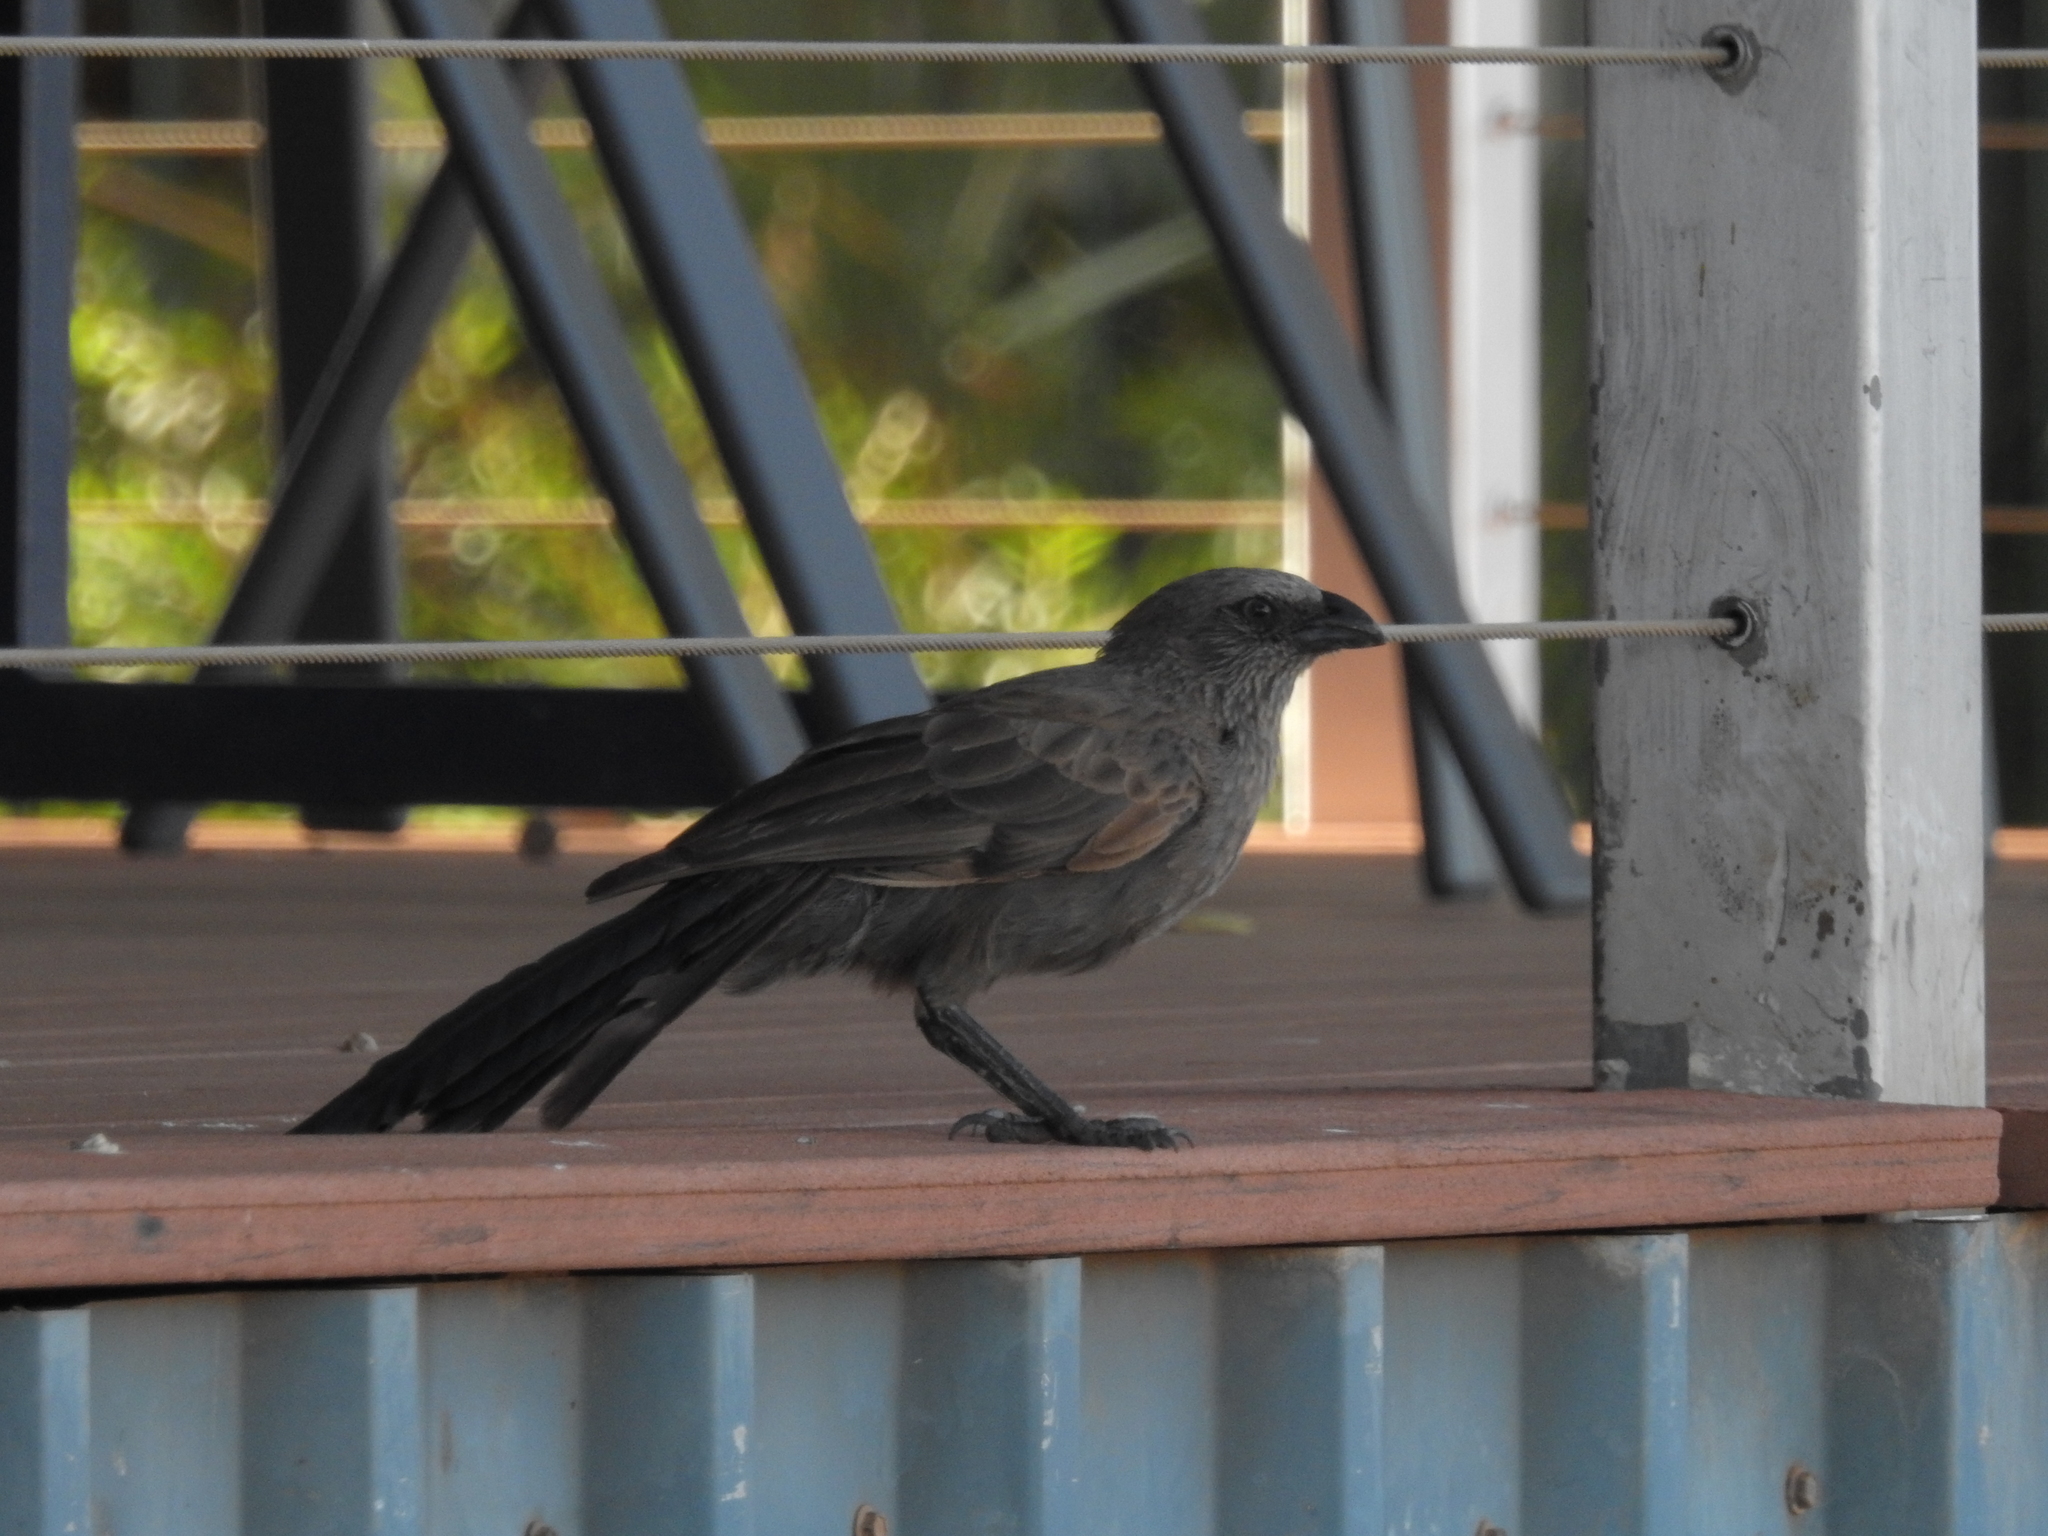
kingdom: Animalia
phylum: Chordata
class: Aves
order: Passeriformes
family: Corcoracidae
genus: Struthidea
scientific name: Struthidea cinerea
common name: Apostlebird
